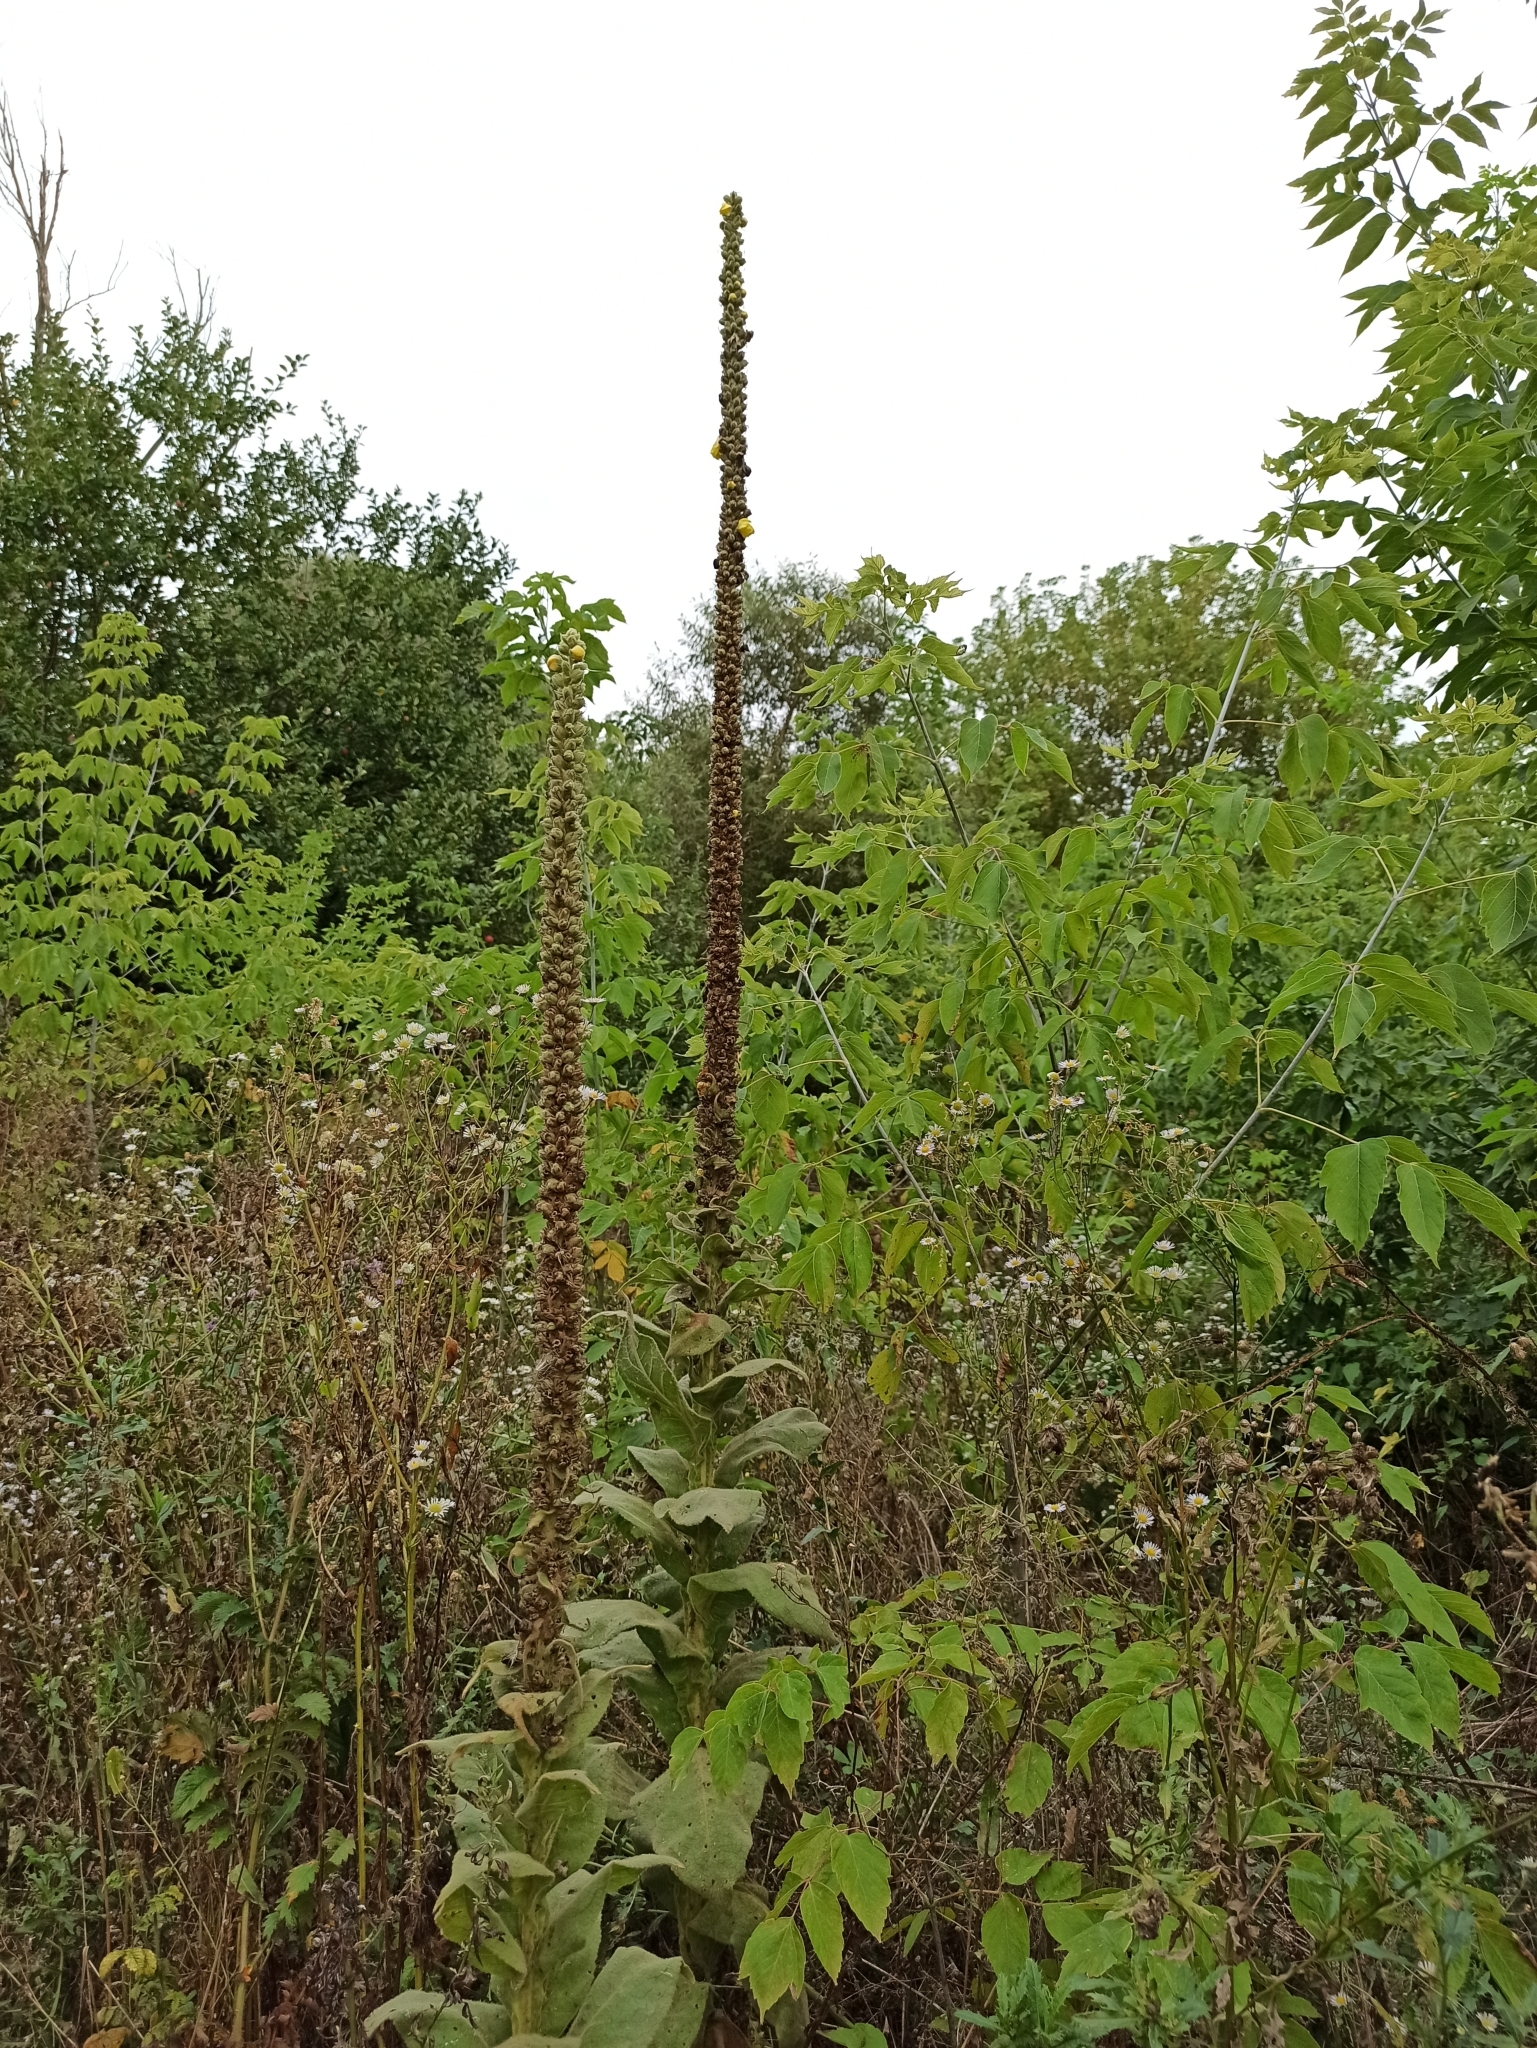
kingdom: Plantae
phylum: Tracheophyta
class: Magnoliopsida
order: Lamiales
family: Scrophulariaceae
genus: Verbascum
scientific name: Verbascum thapsus
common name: Common mullein
